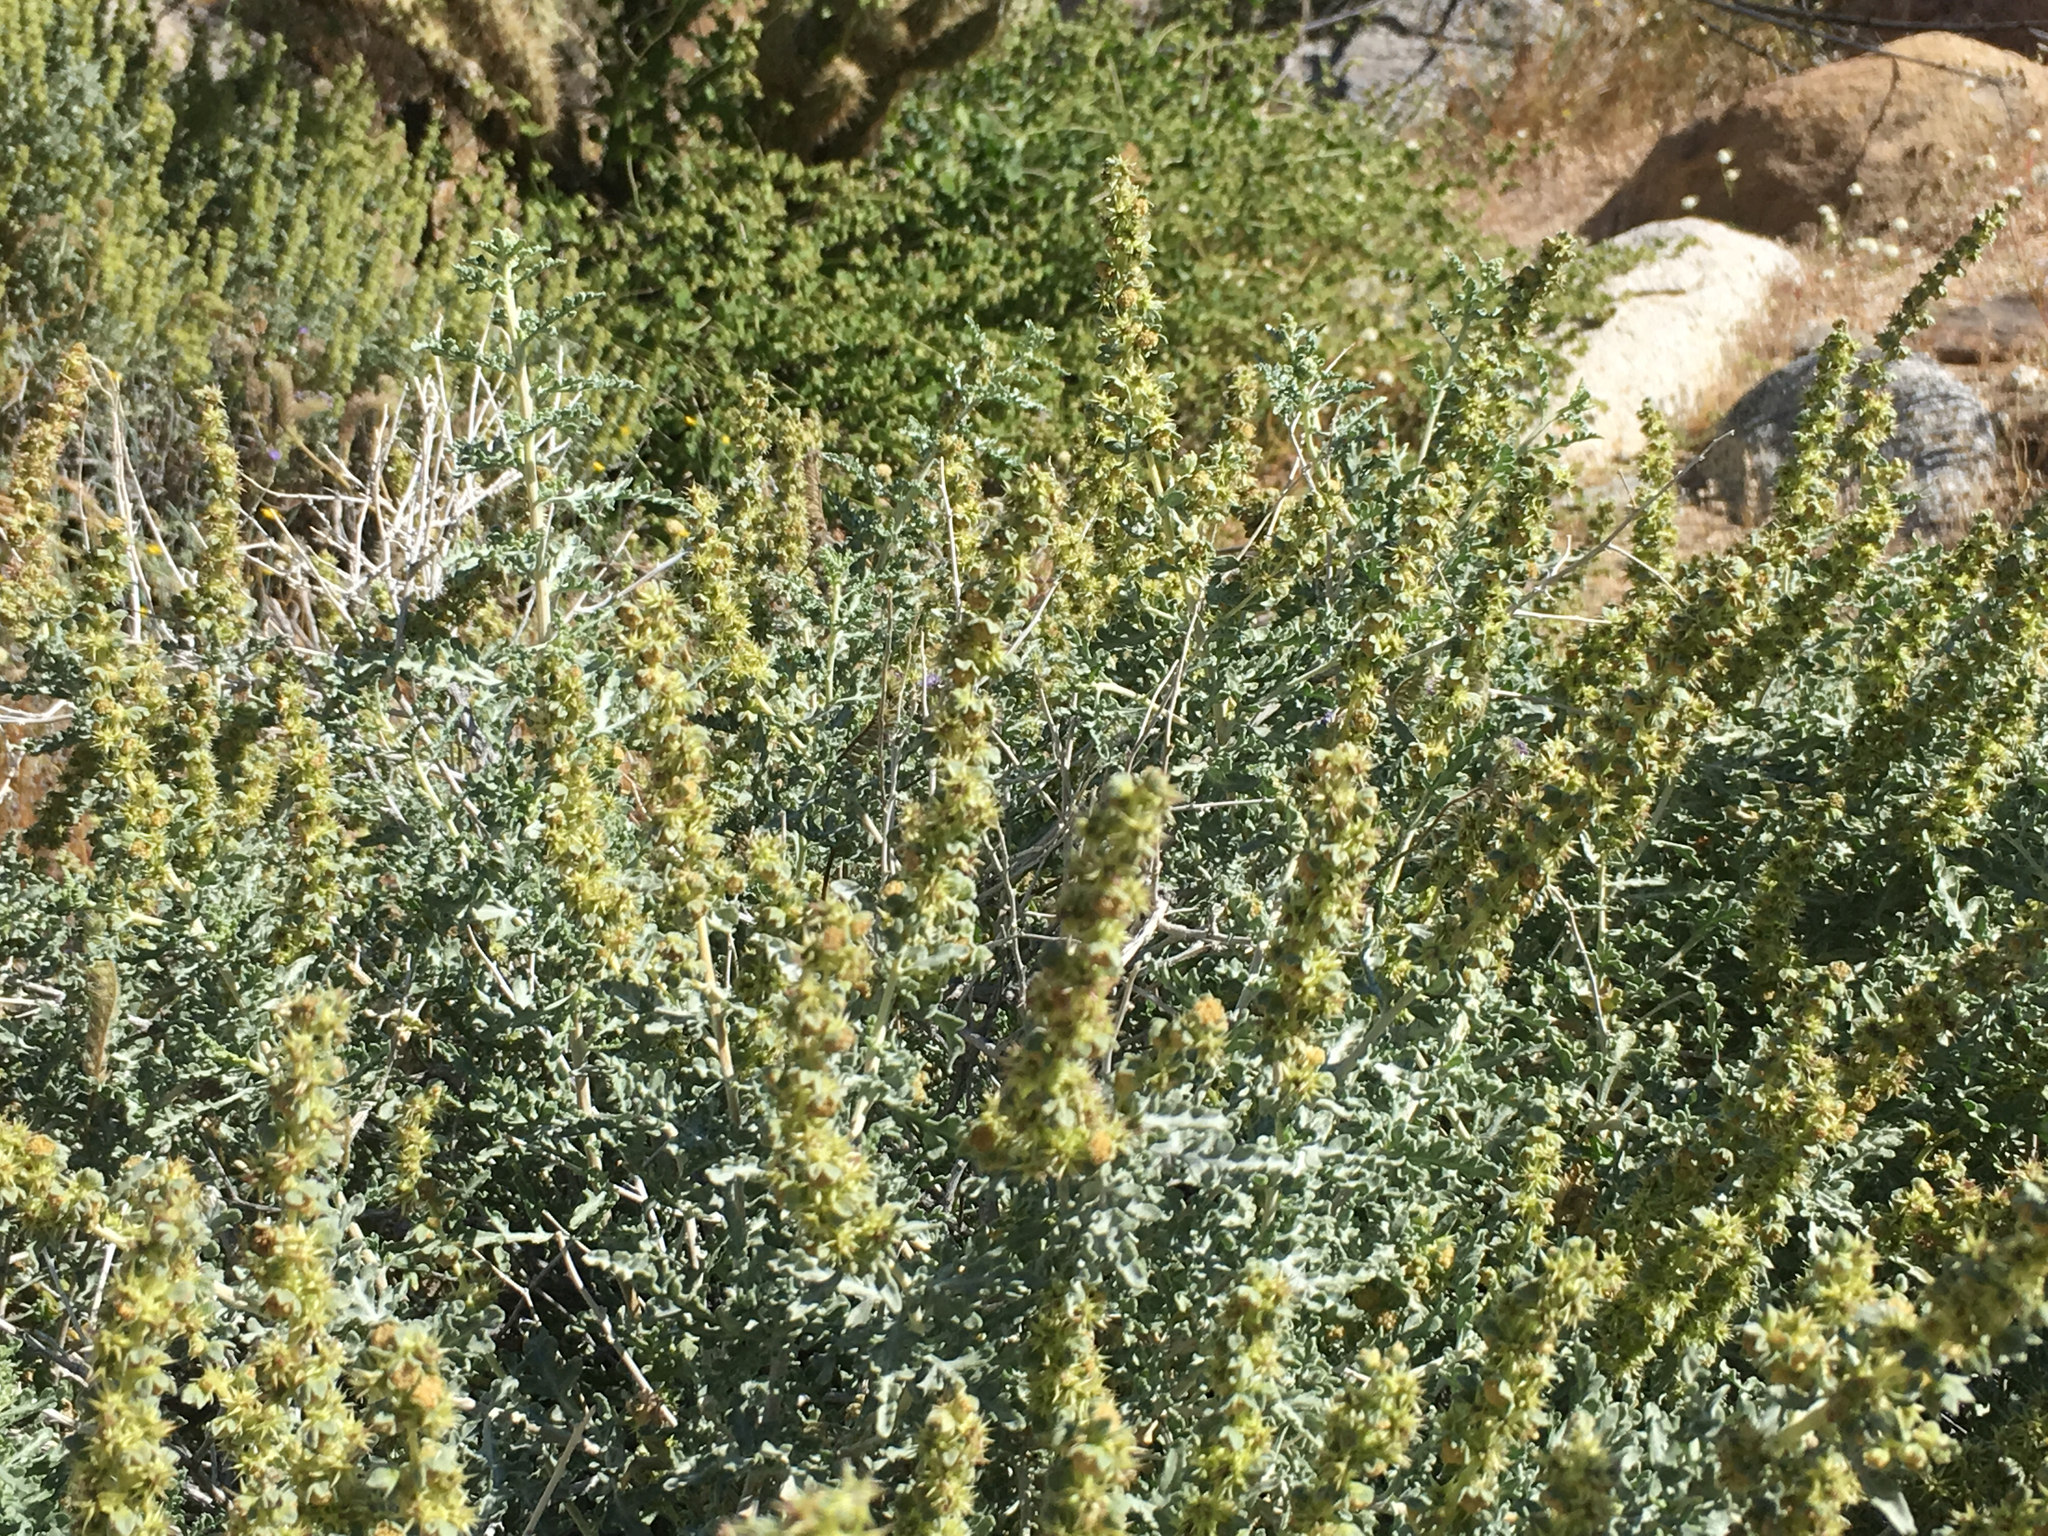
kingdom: Plantae
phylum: Tracheophyta
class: Magnoliopsida
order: Asterales
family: Asteraceae
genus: Ambrosia
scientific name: Ambrosia dumosa
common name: Bur-sage
